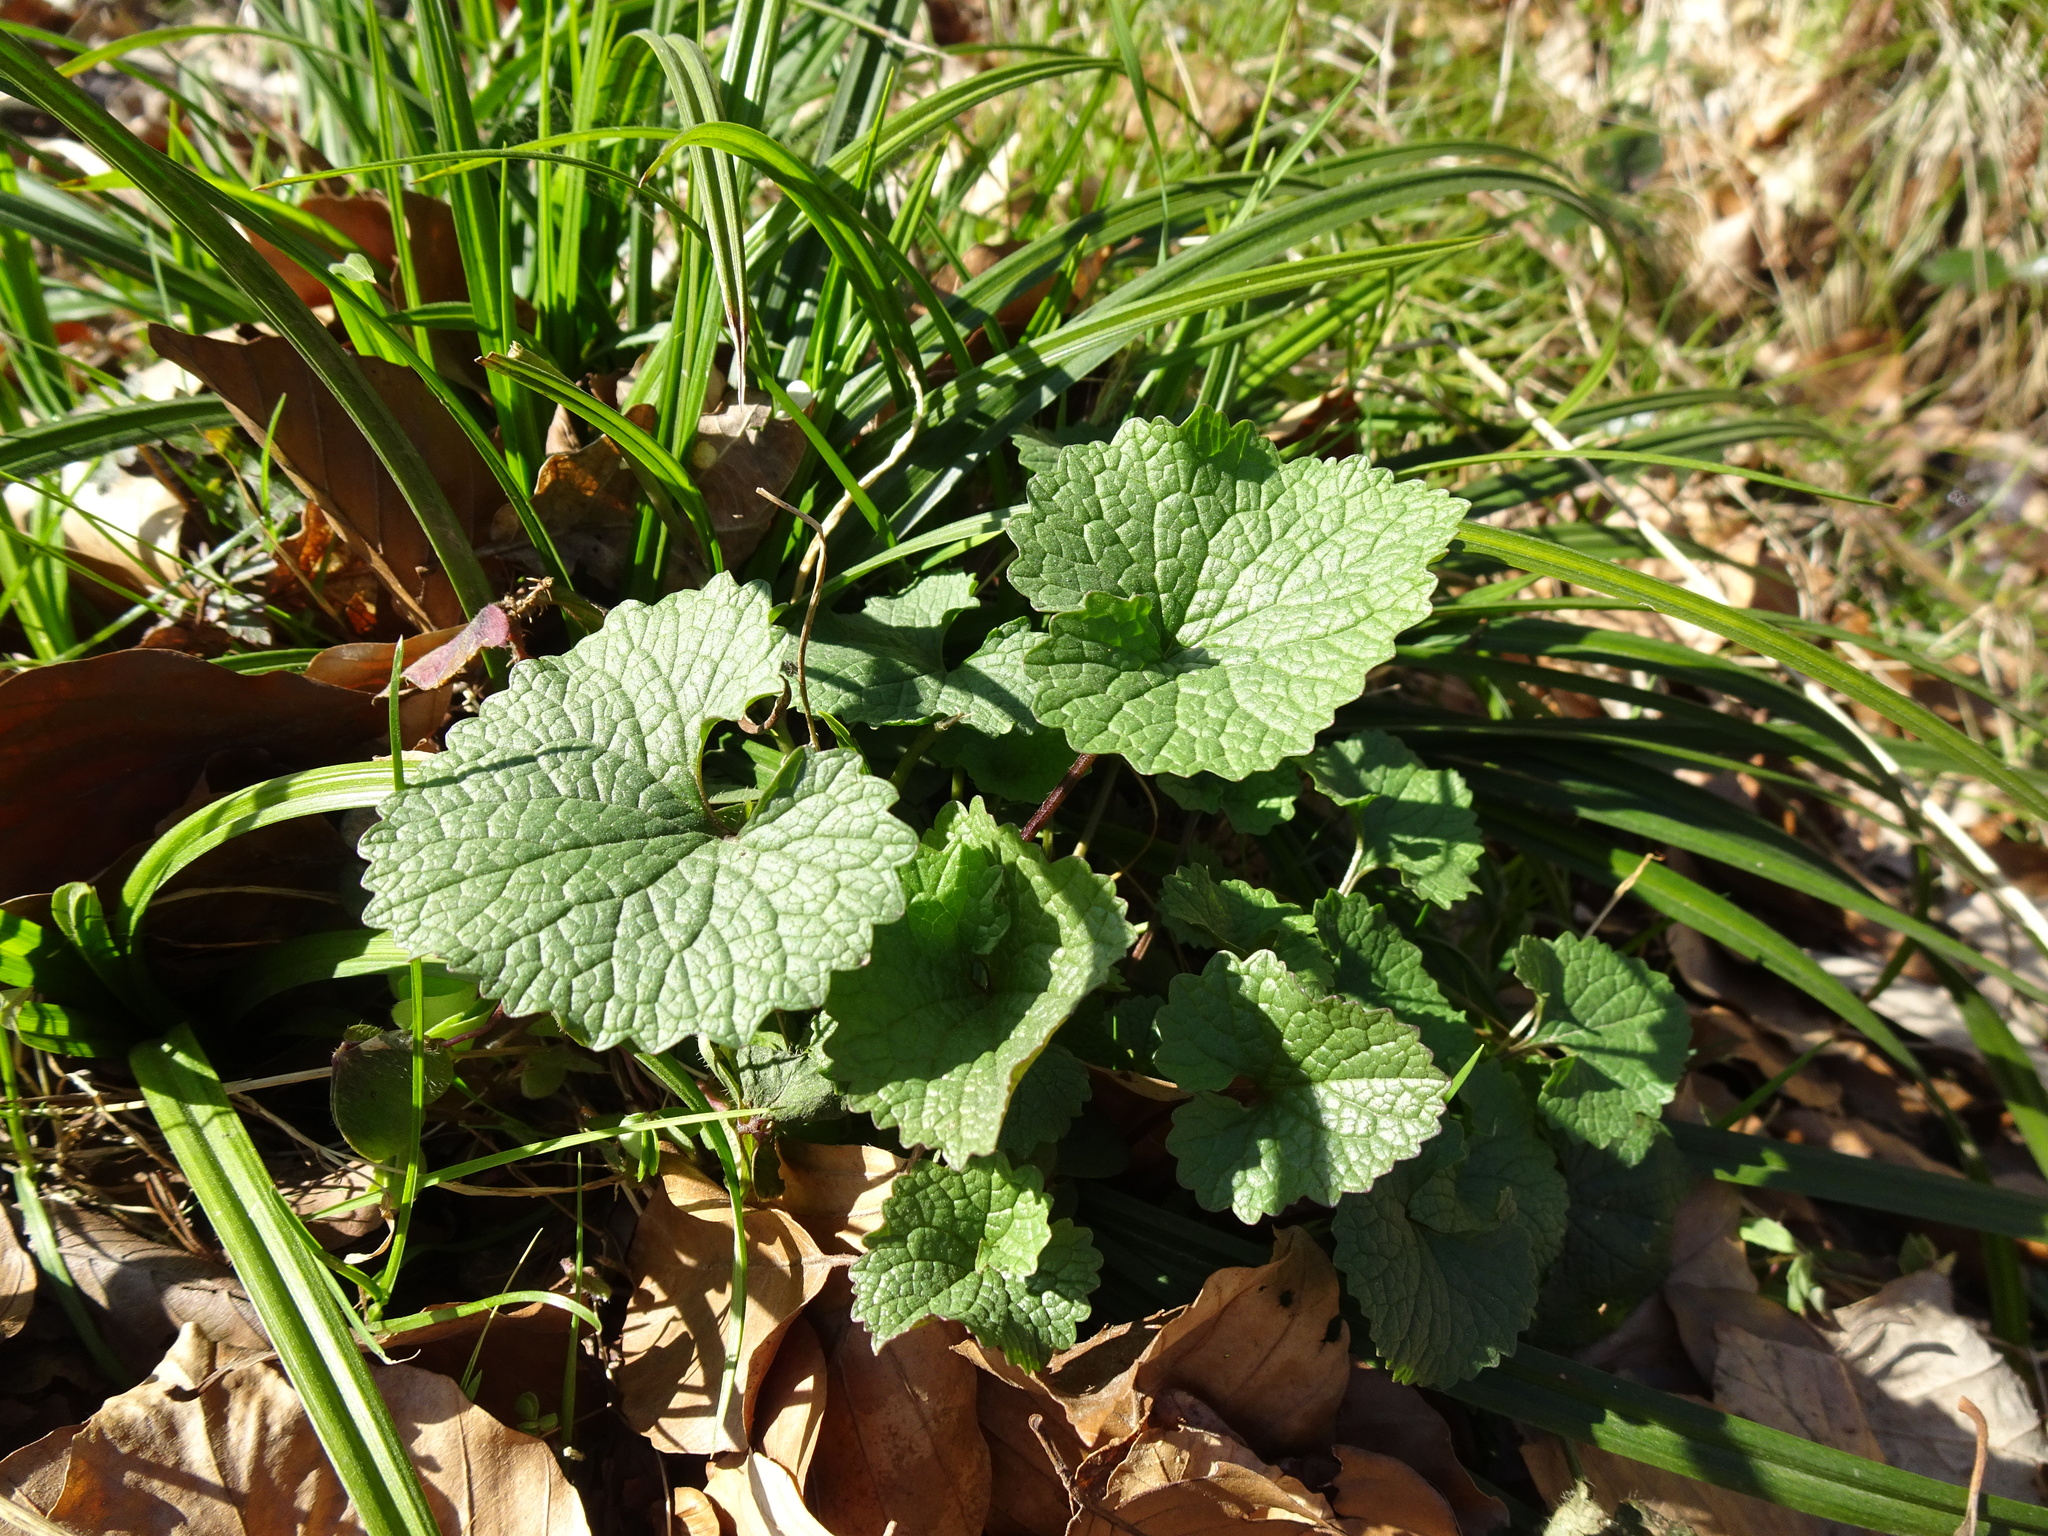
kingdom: Plantae
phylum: Tracheophyta
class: Magnoliopsida
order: Brassicales
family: Brassicaceae
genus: Alliaria
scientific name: Alliaria petiolata
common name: Garlic mustard
